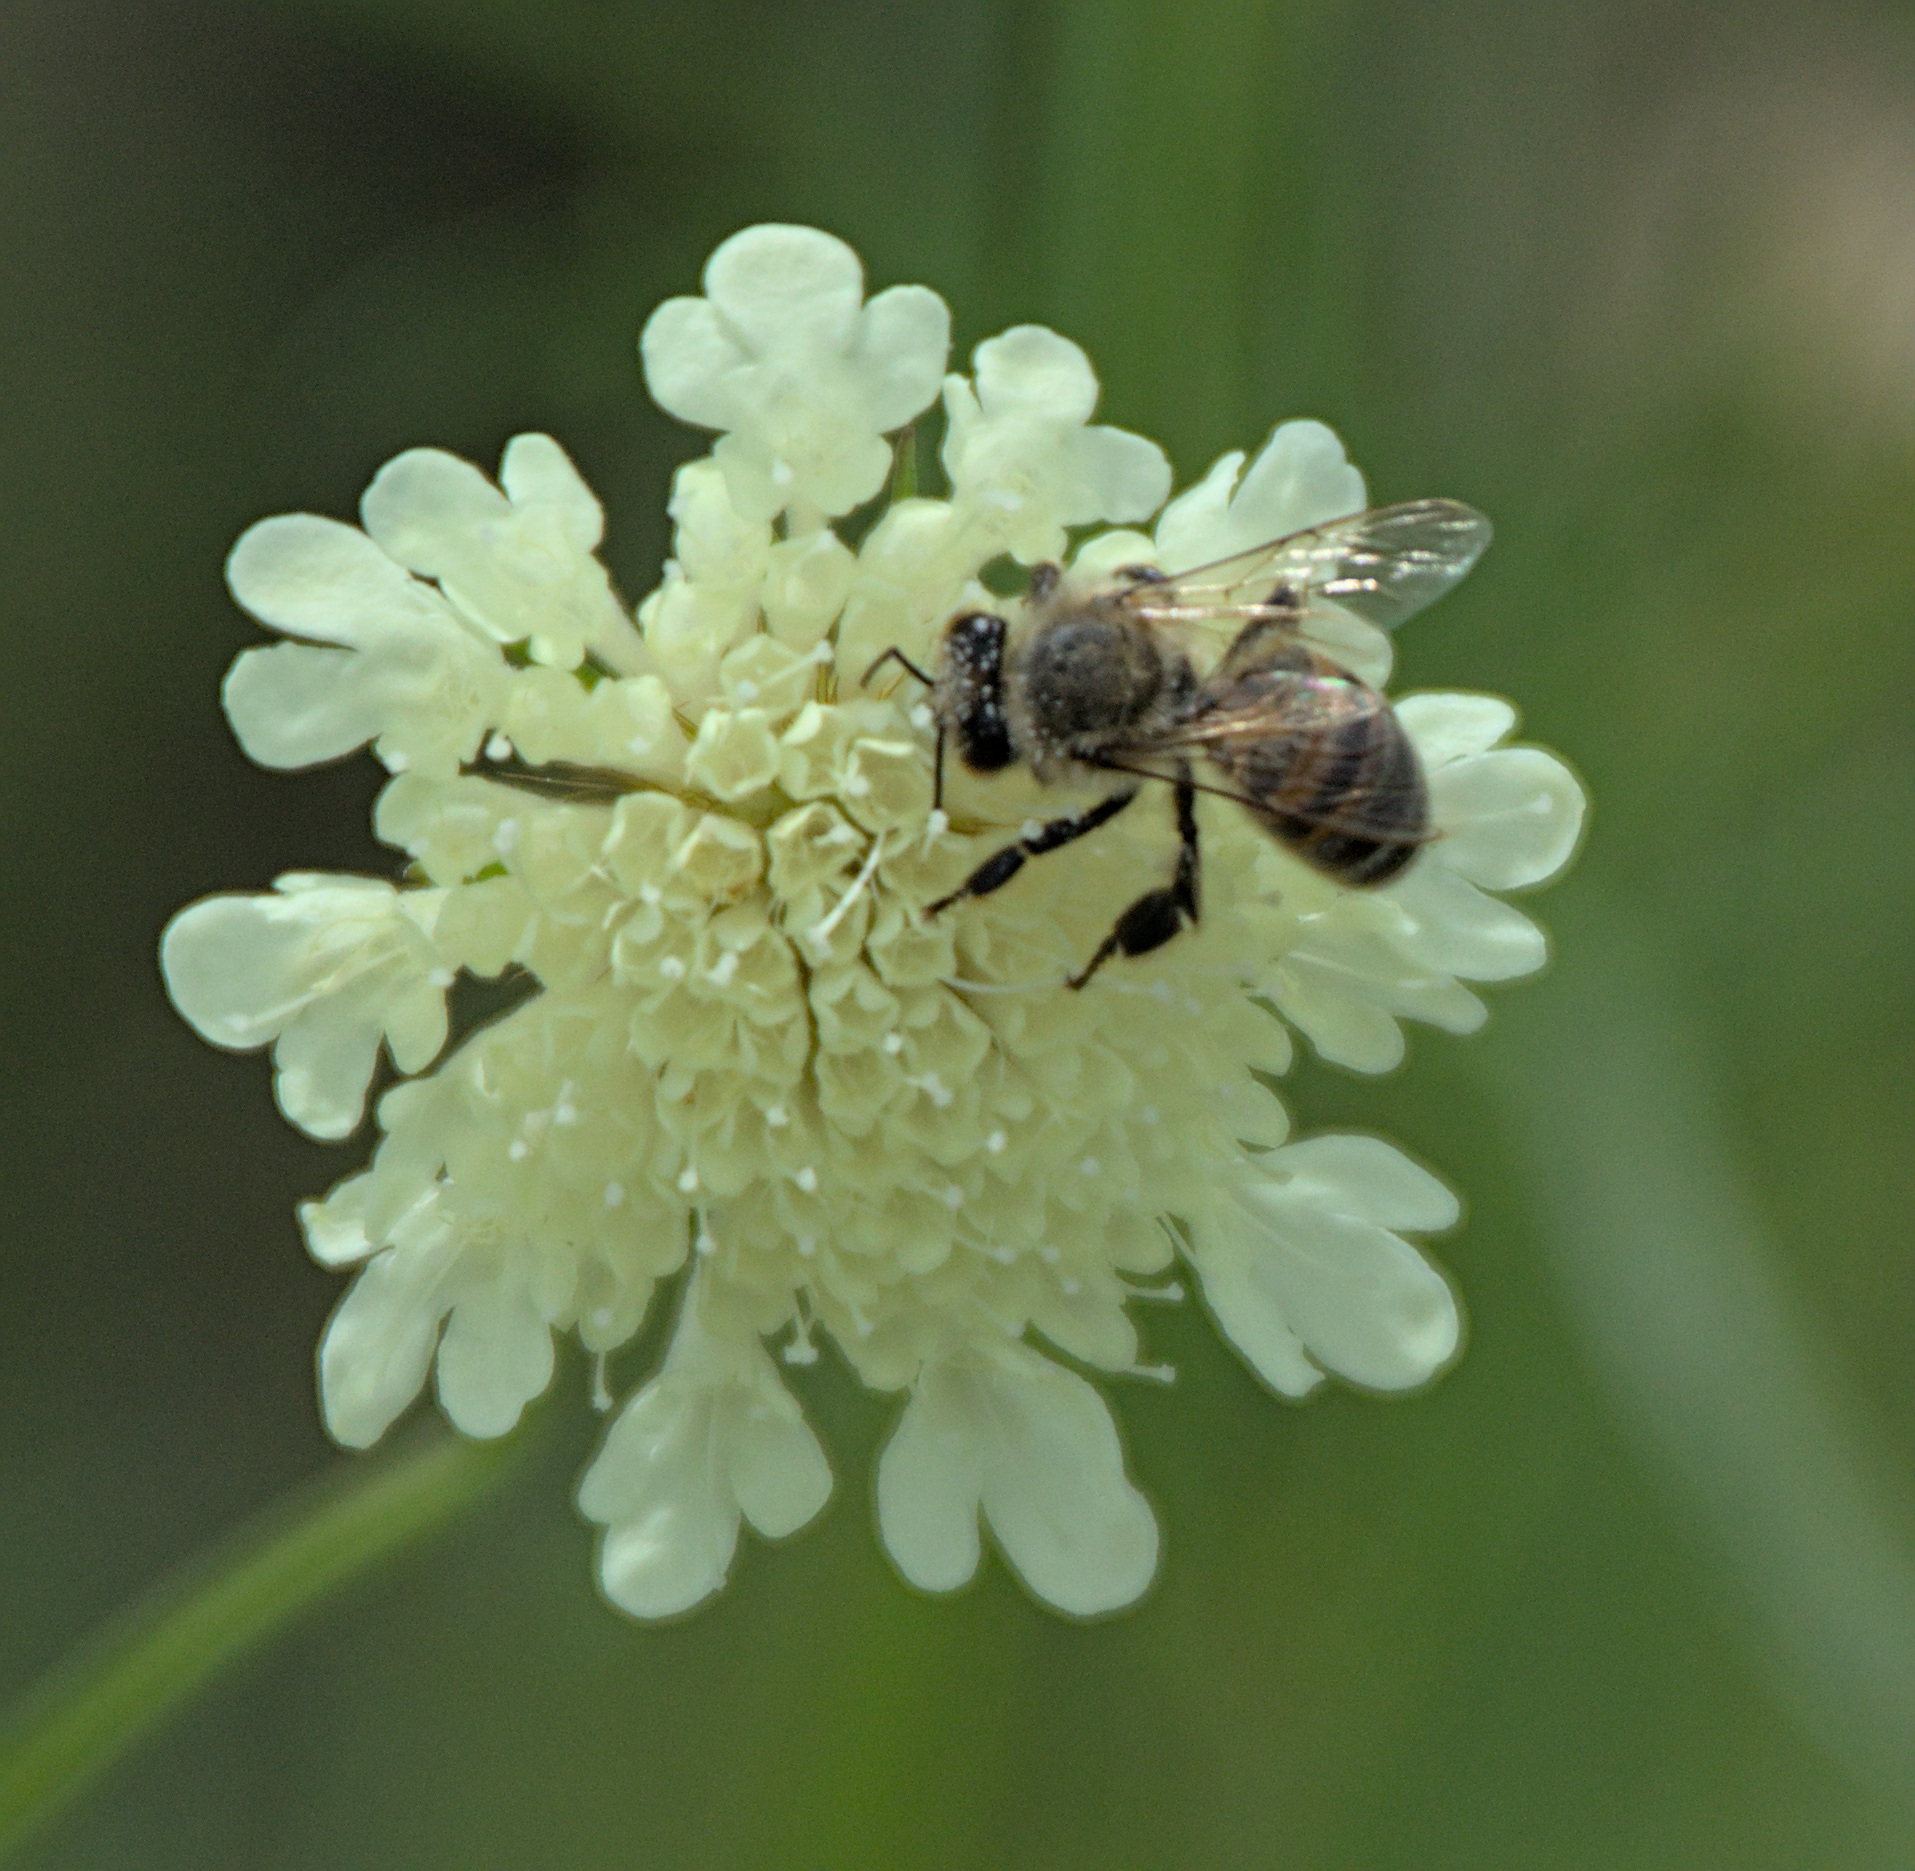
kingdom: Animalia
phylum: Arthropoda
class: Insecta
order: Hymenoptera
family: Apidae
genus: Apis
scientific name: Apis mellifera
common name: Honey bee
